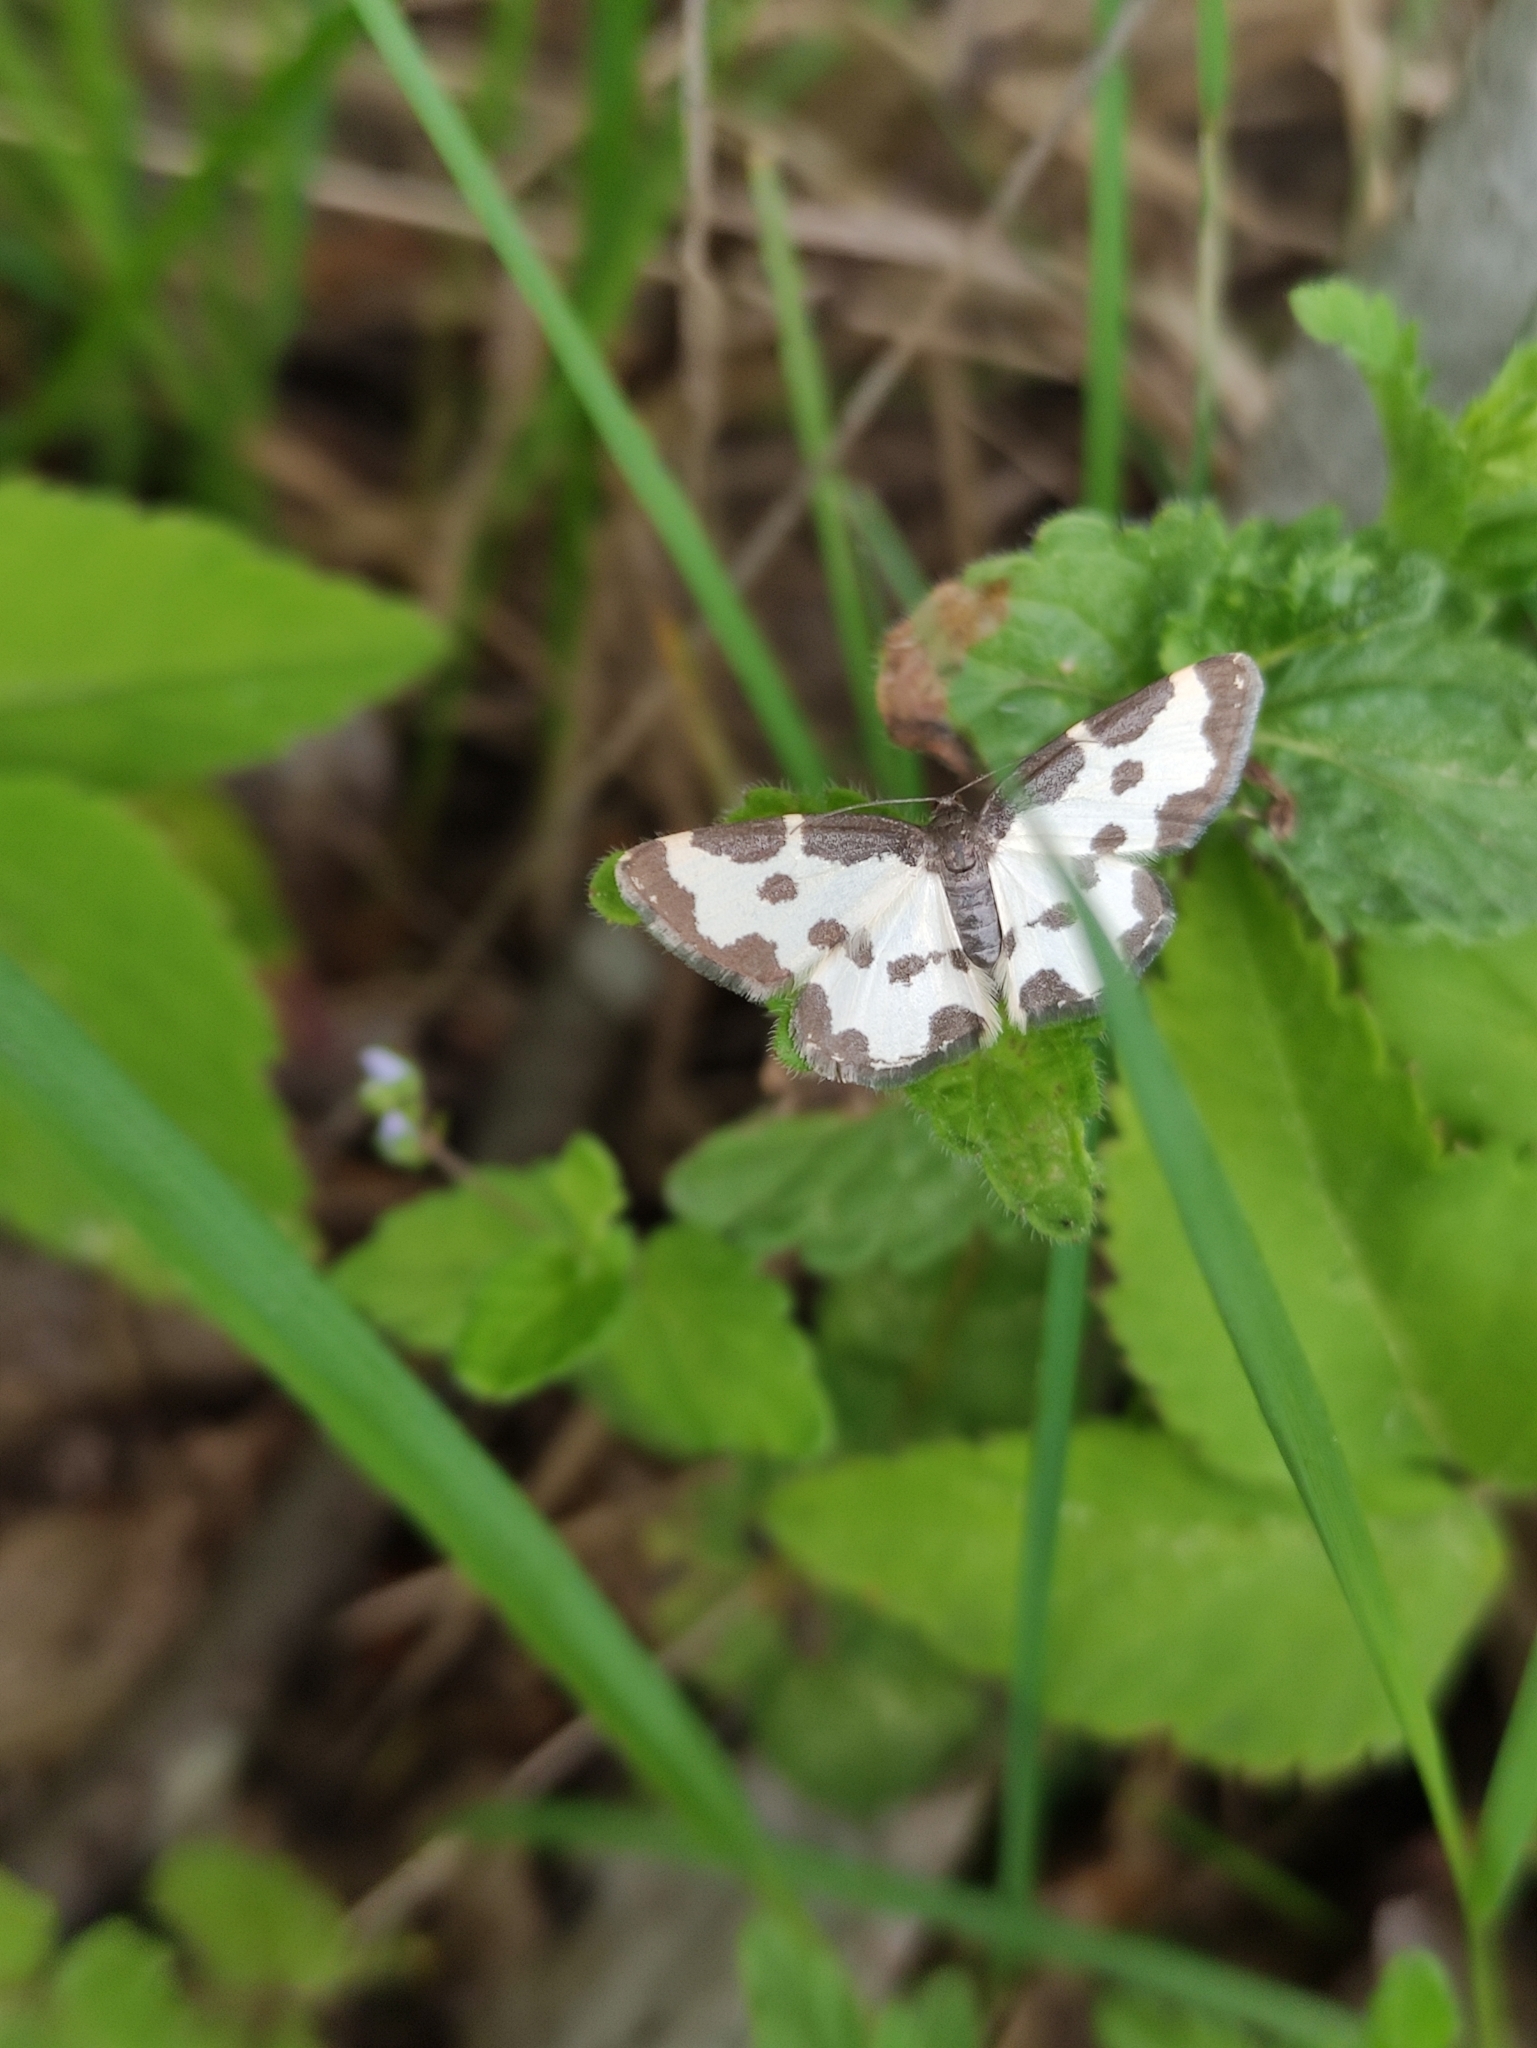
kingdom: Animalia
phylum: Arthropoda
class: Insecta
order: Lepidoptera
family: Geometridae
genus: Lomaspilis
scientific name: Lomaspilis marginata
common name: Clouded border
